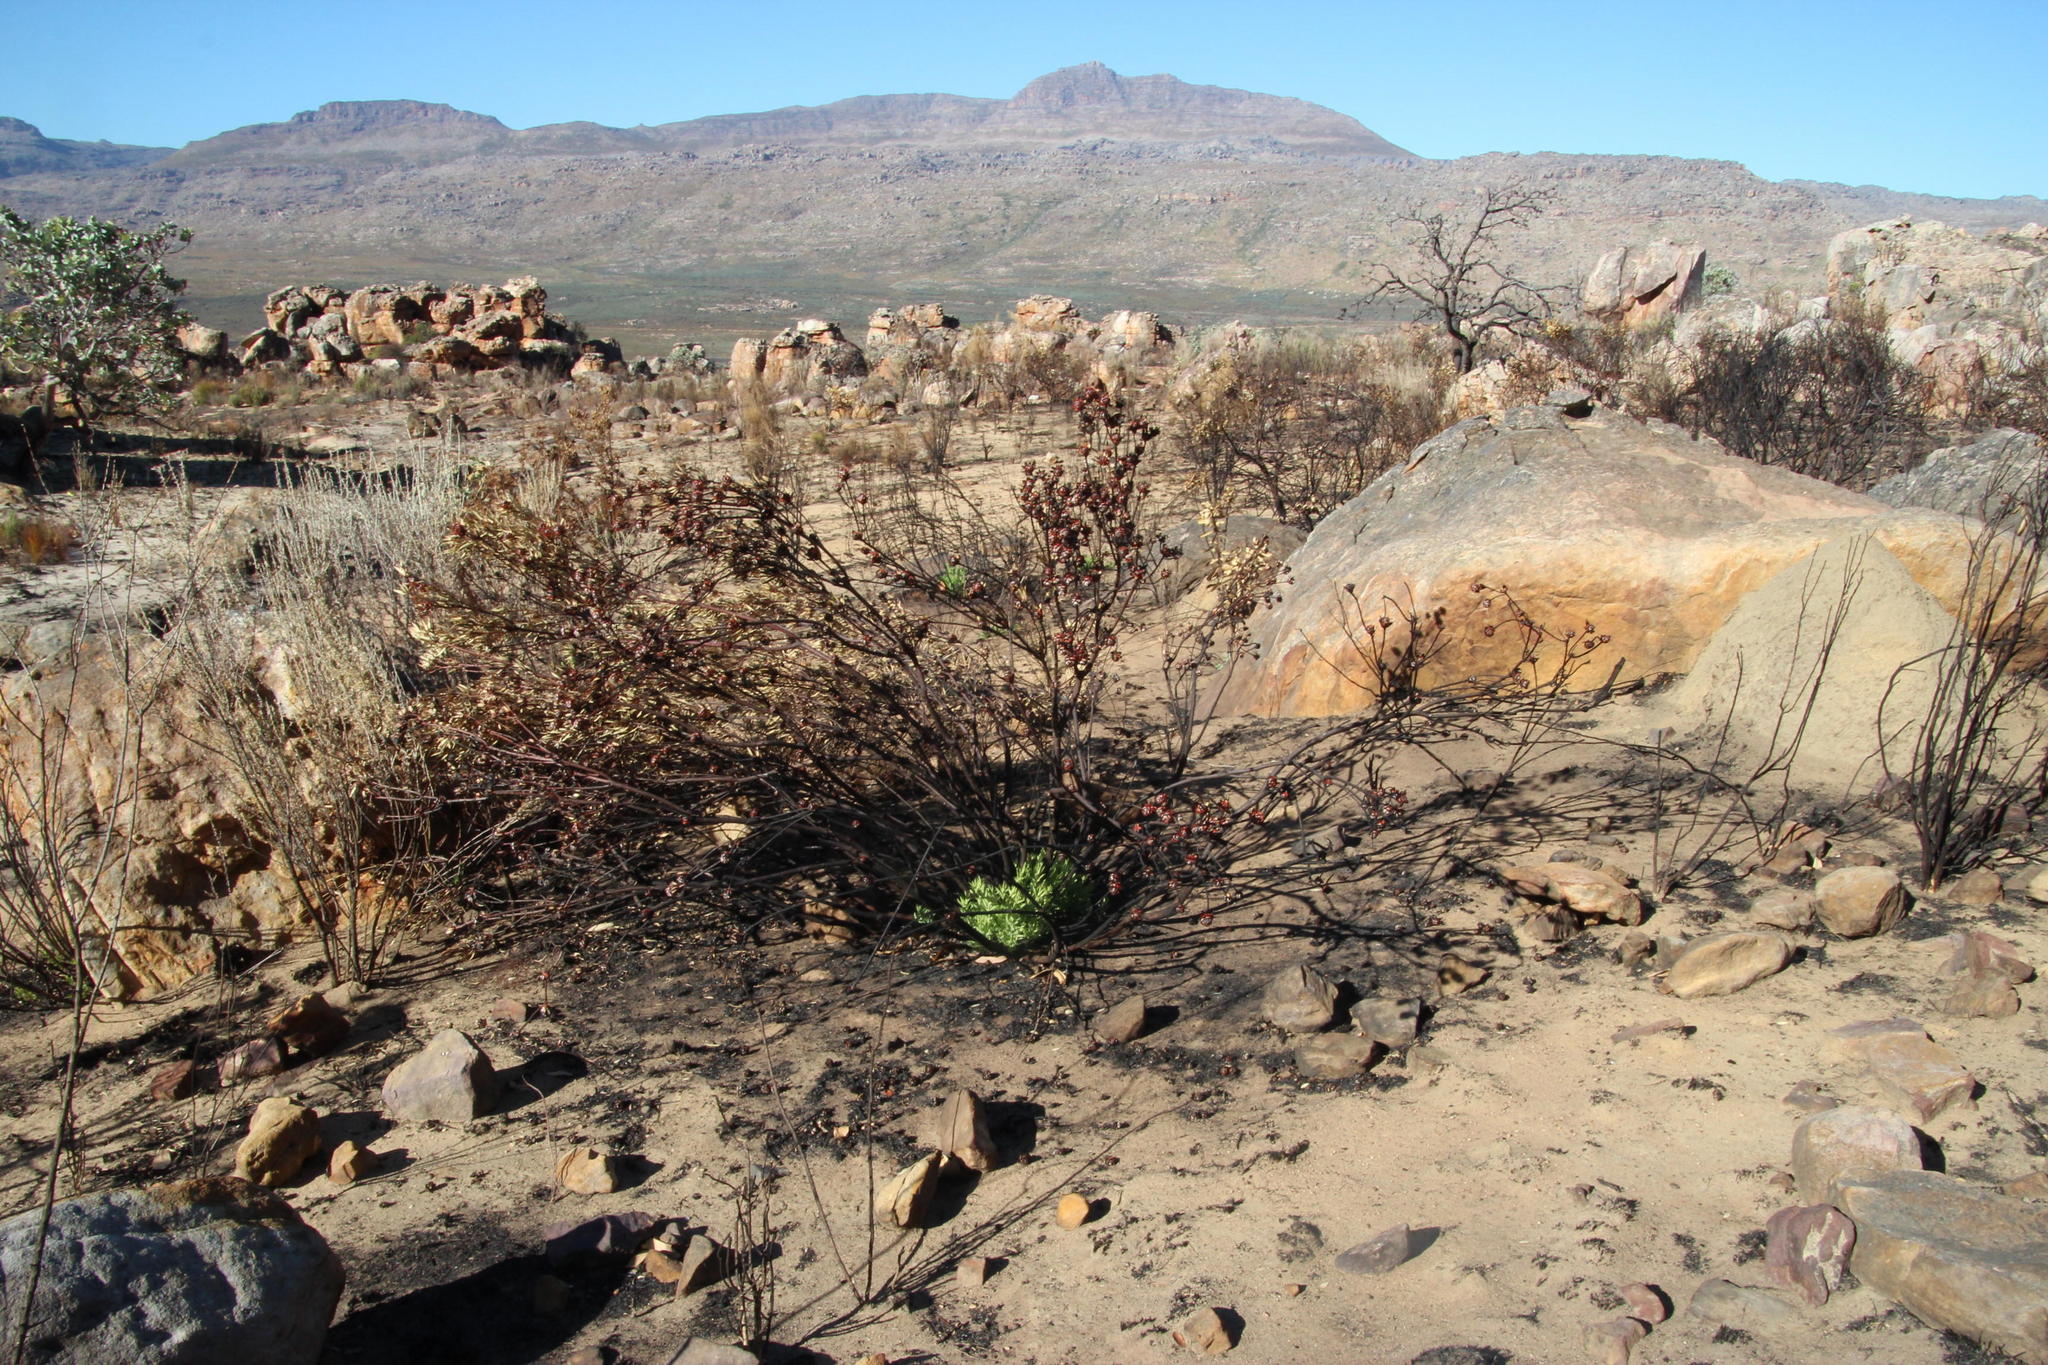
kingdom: Plantae
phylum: Tracheophyta
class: Magnoliopsida
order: Proteales
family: Proteaceae
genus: Leucadendron
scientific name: Leucadendron salignum
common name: Common sunshine conebush
